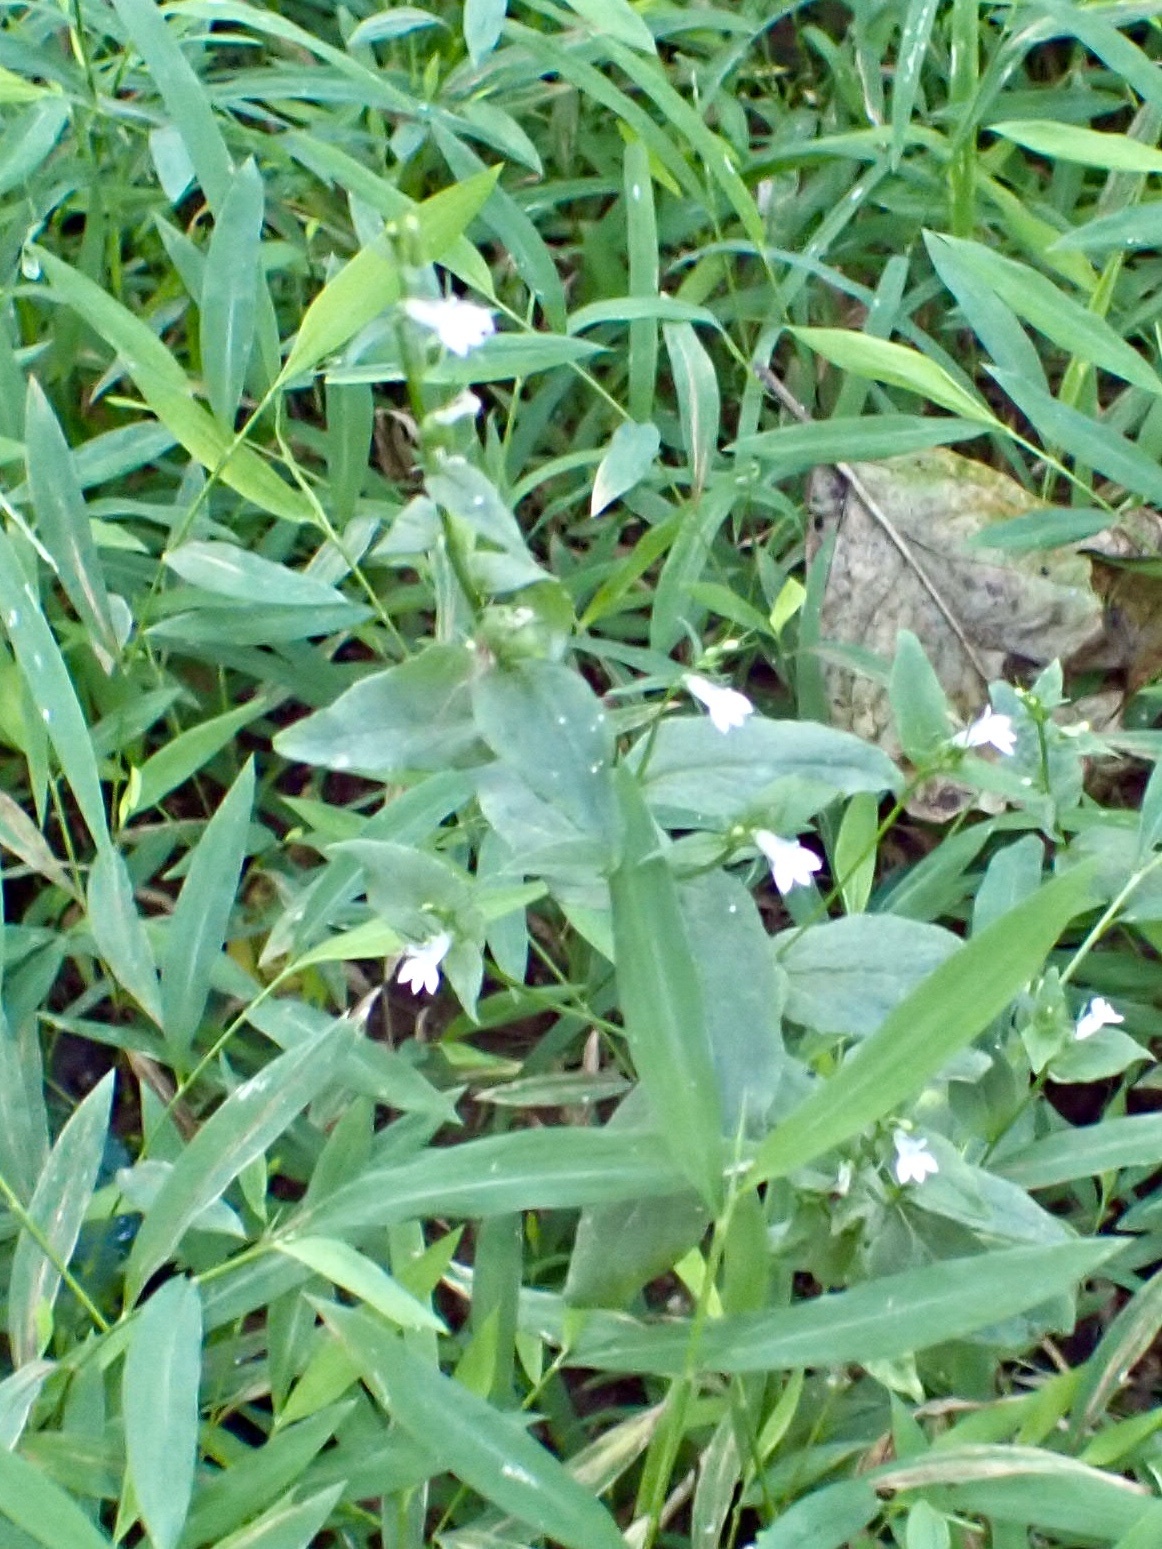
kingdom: Plantae
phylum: Tracheophyta
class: Magnoliopsida
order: Asterales
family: Campanulaceae
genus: Lobelia
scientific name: Lobelia inflata
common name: Indian tobacco
